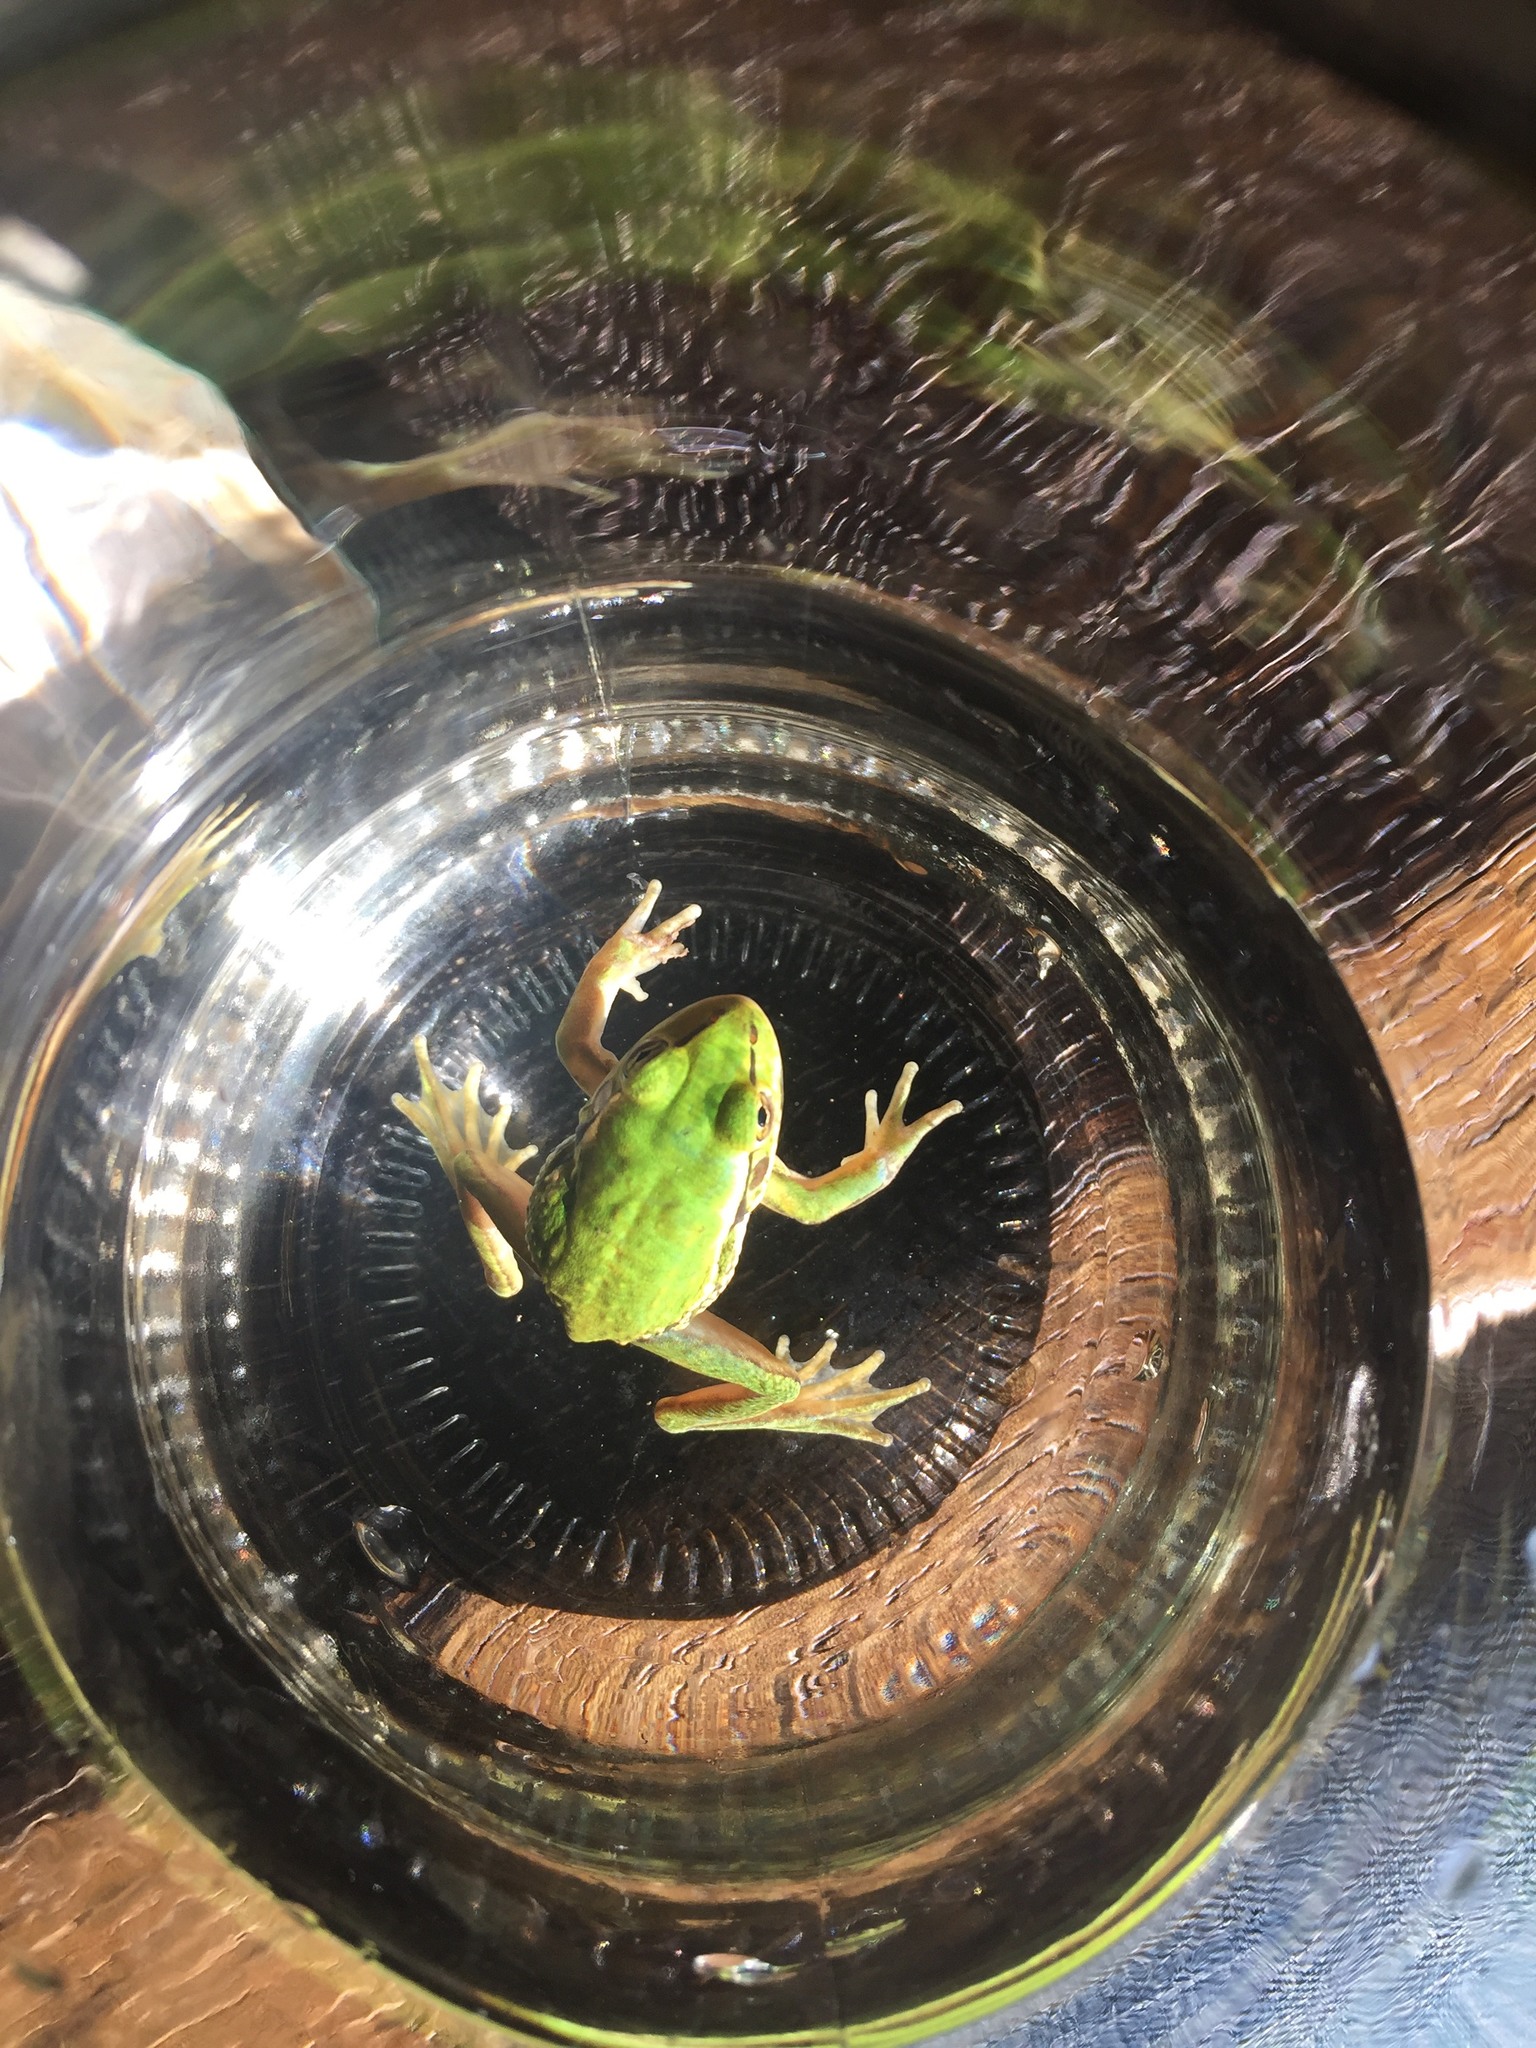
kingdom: Animalia
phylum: Chordata
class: Amphibia
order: Anura
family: Pelodryadidae
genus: Ranoidea
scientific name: Ranoidea aurea
